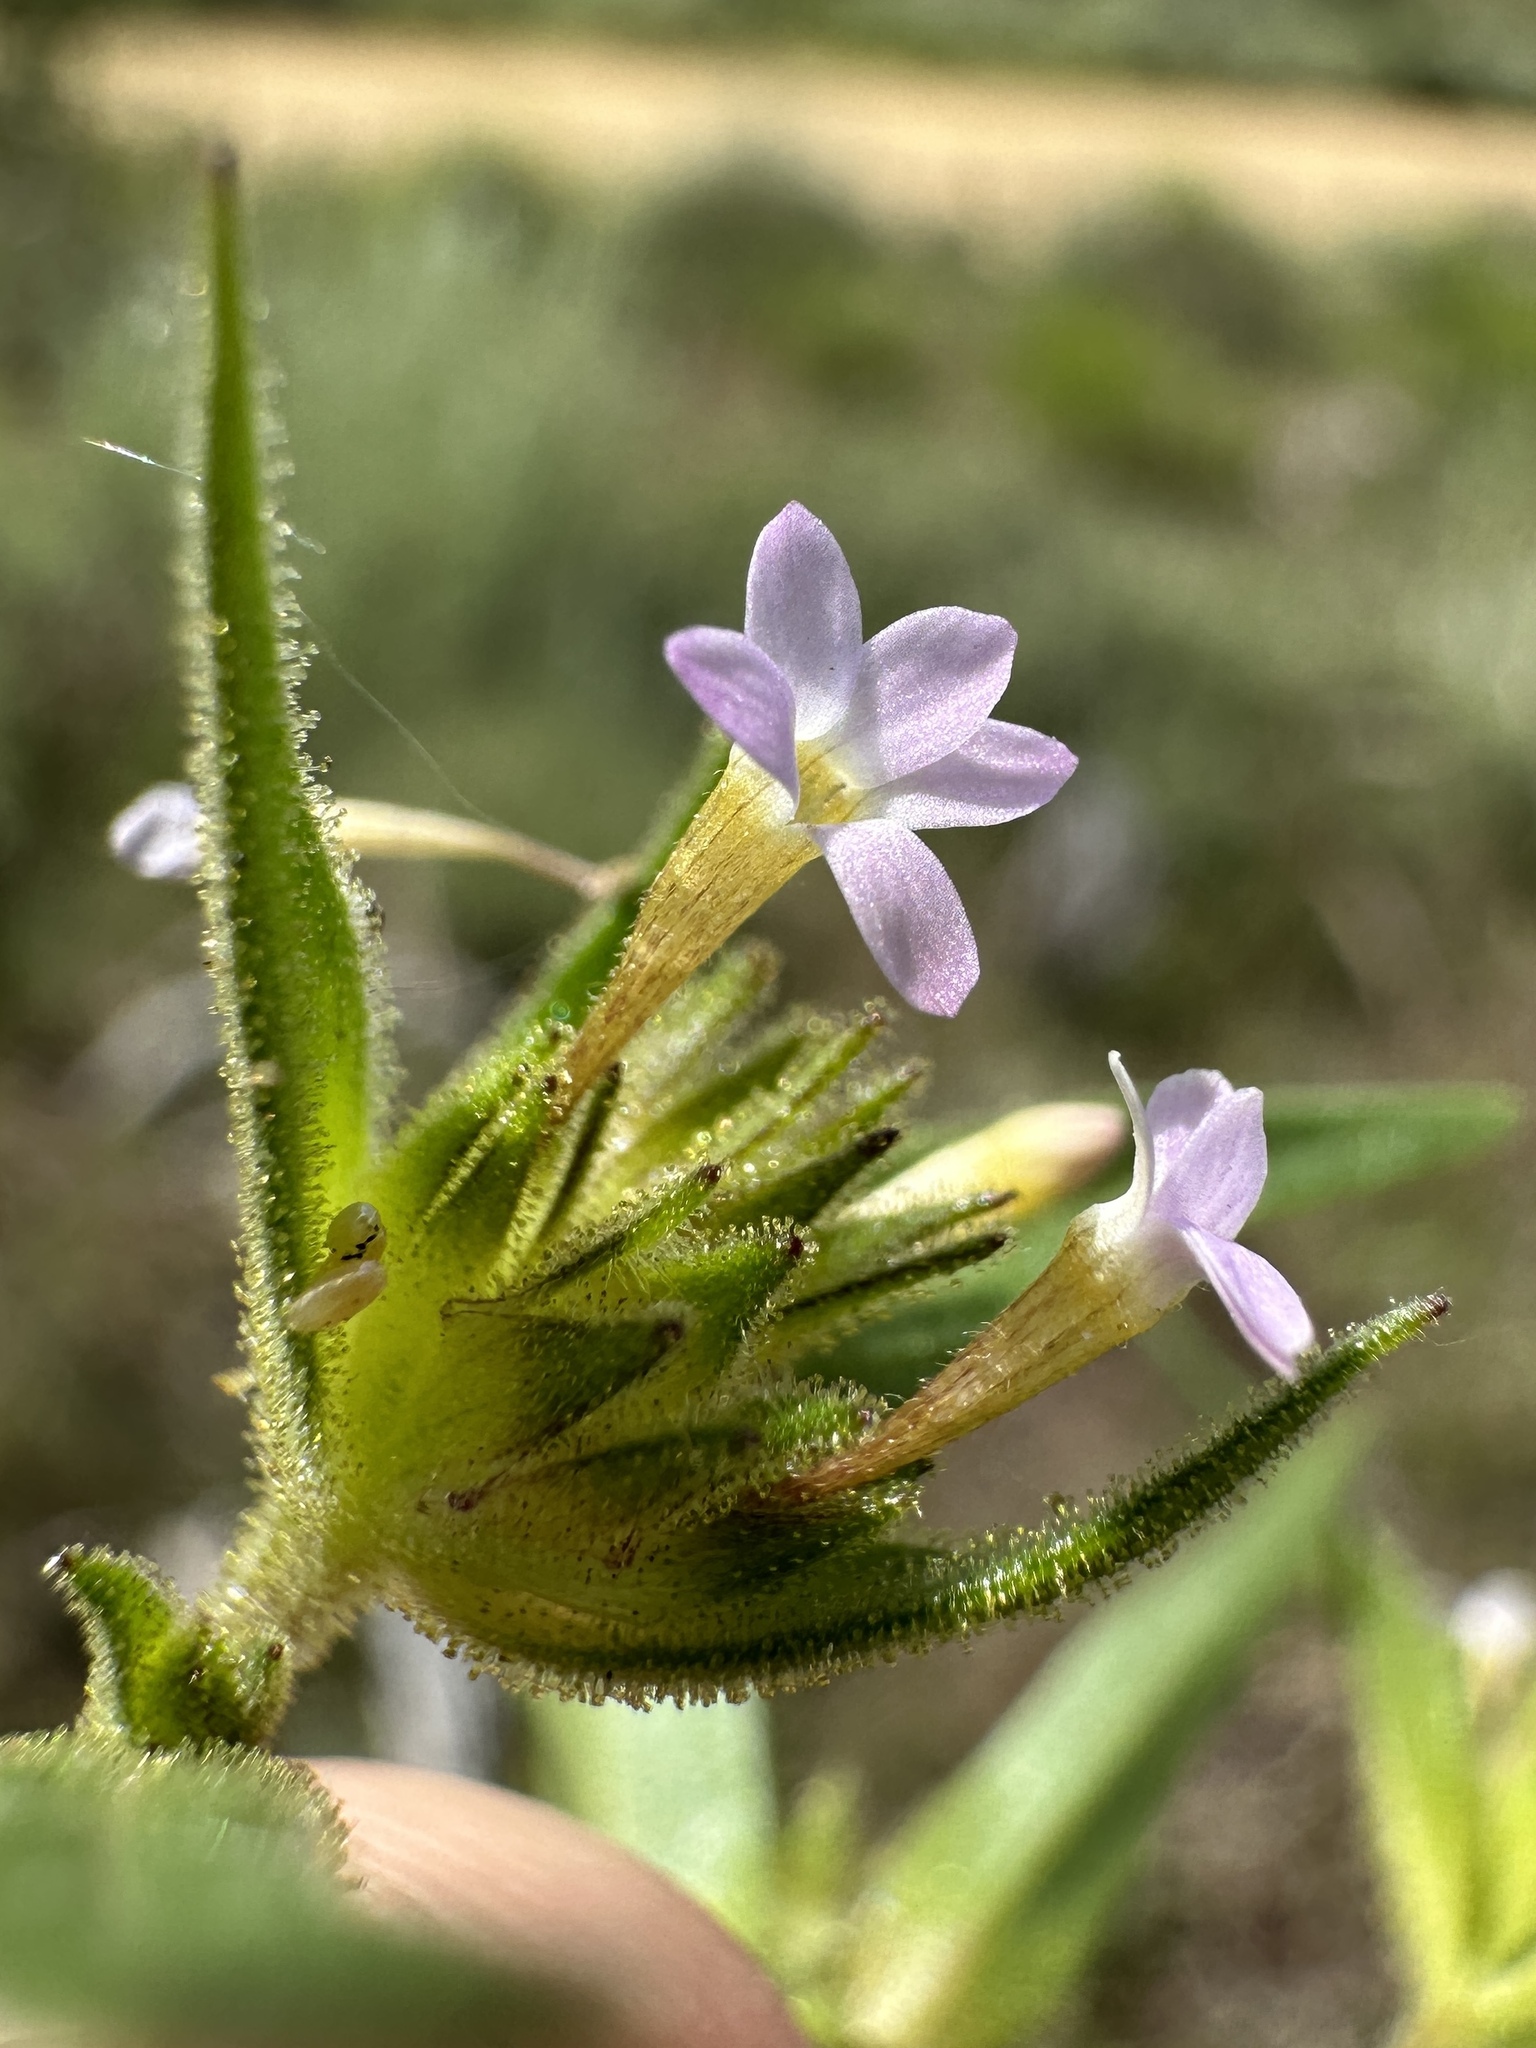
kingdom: Plantae
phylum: Tracheophyta
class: Magnoliopsida
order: Ericales
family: Polemoniaceae
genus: Collomia
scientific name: Collomia linearis
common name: Tiny trumpet
